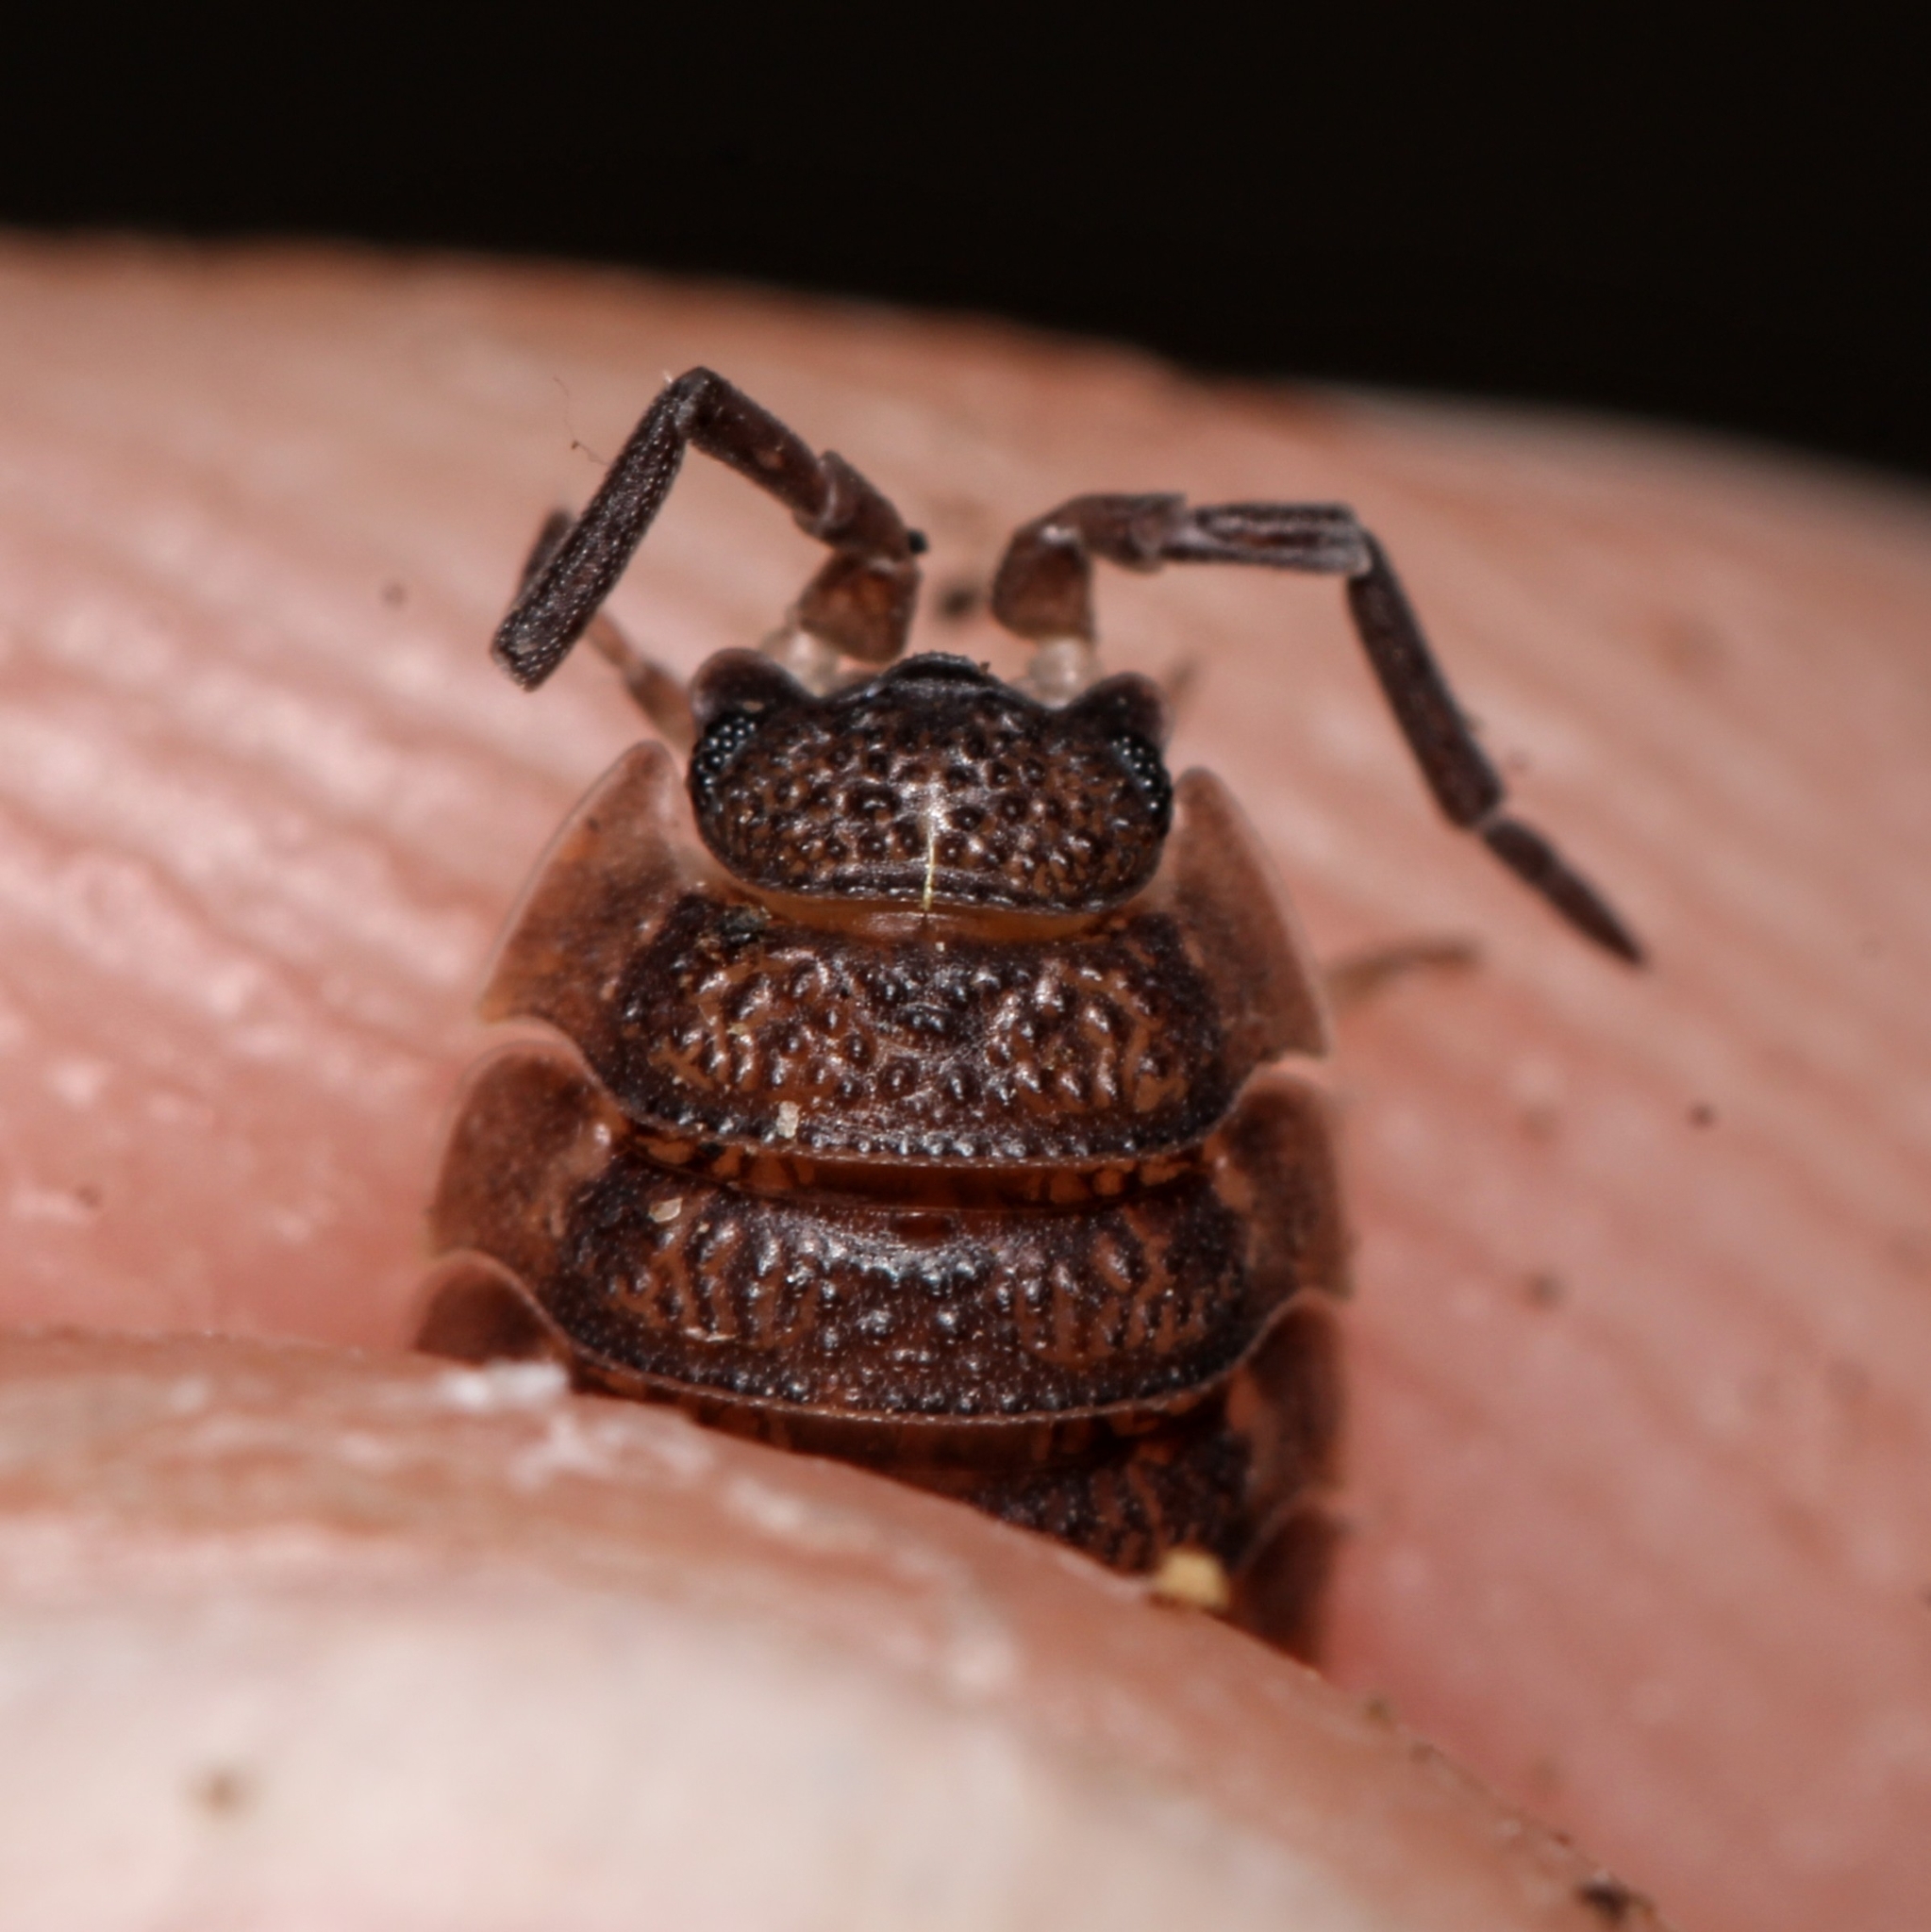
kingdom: Animalia
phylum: Arthropoda
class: Malacostraca
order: Isopoda
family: Porcellionidae
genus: Porcellio
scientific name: Porcellio scaber
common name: Common rough woodlouse
